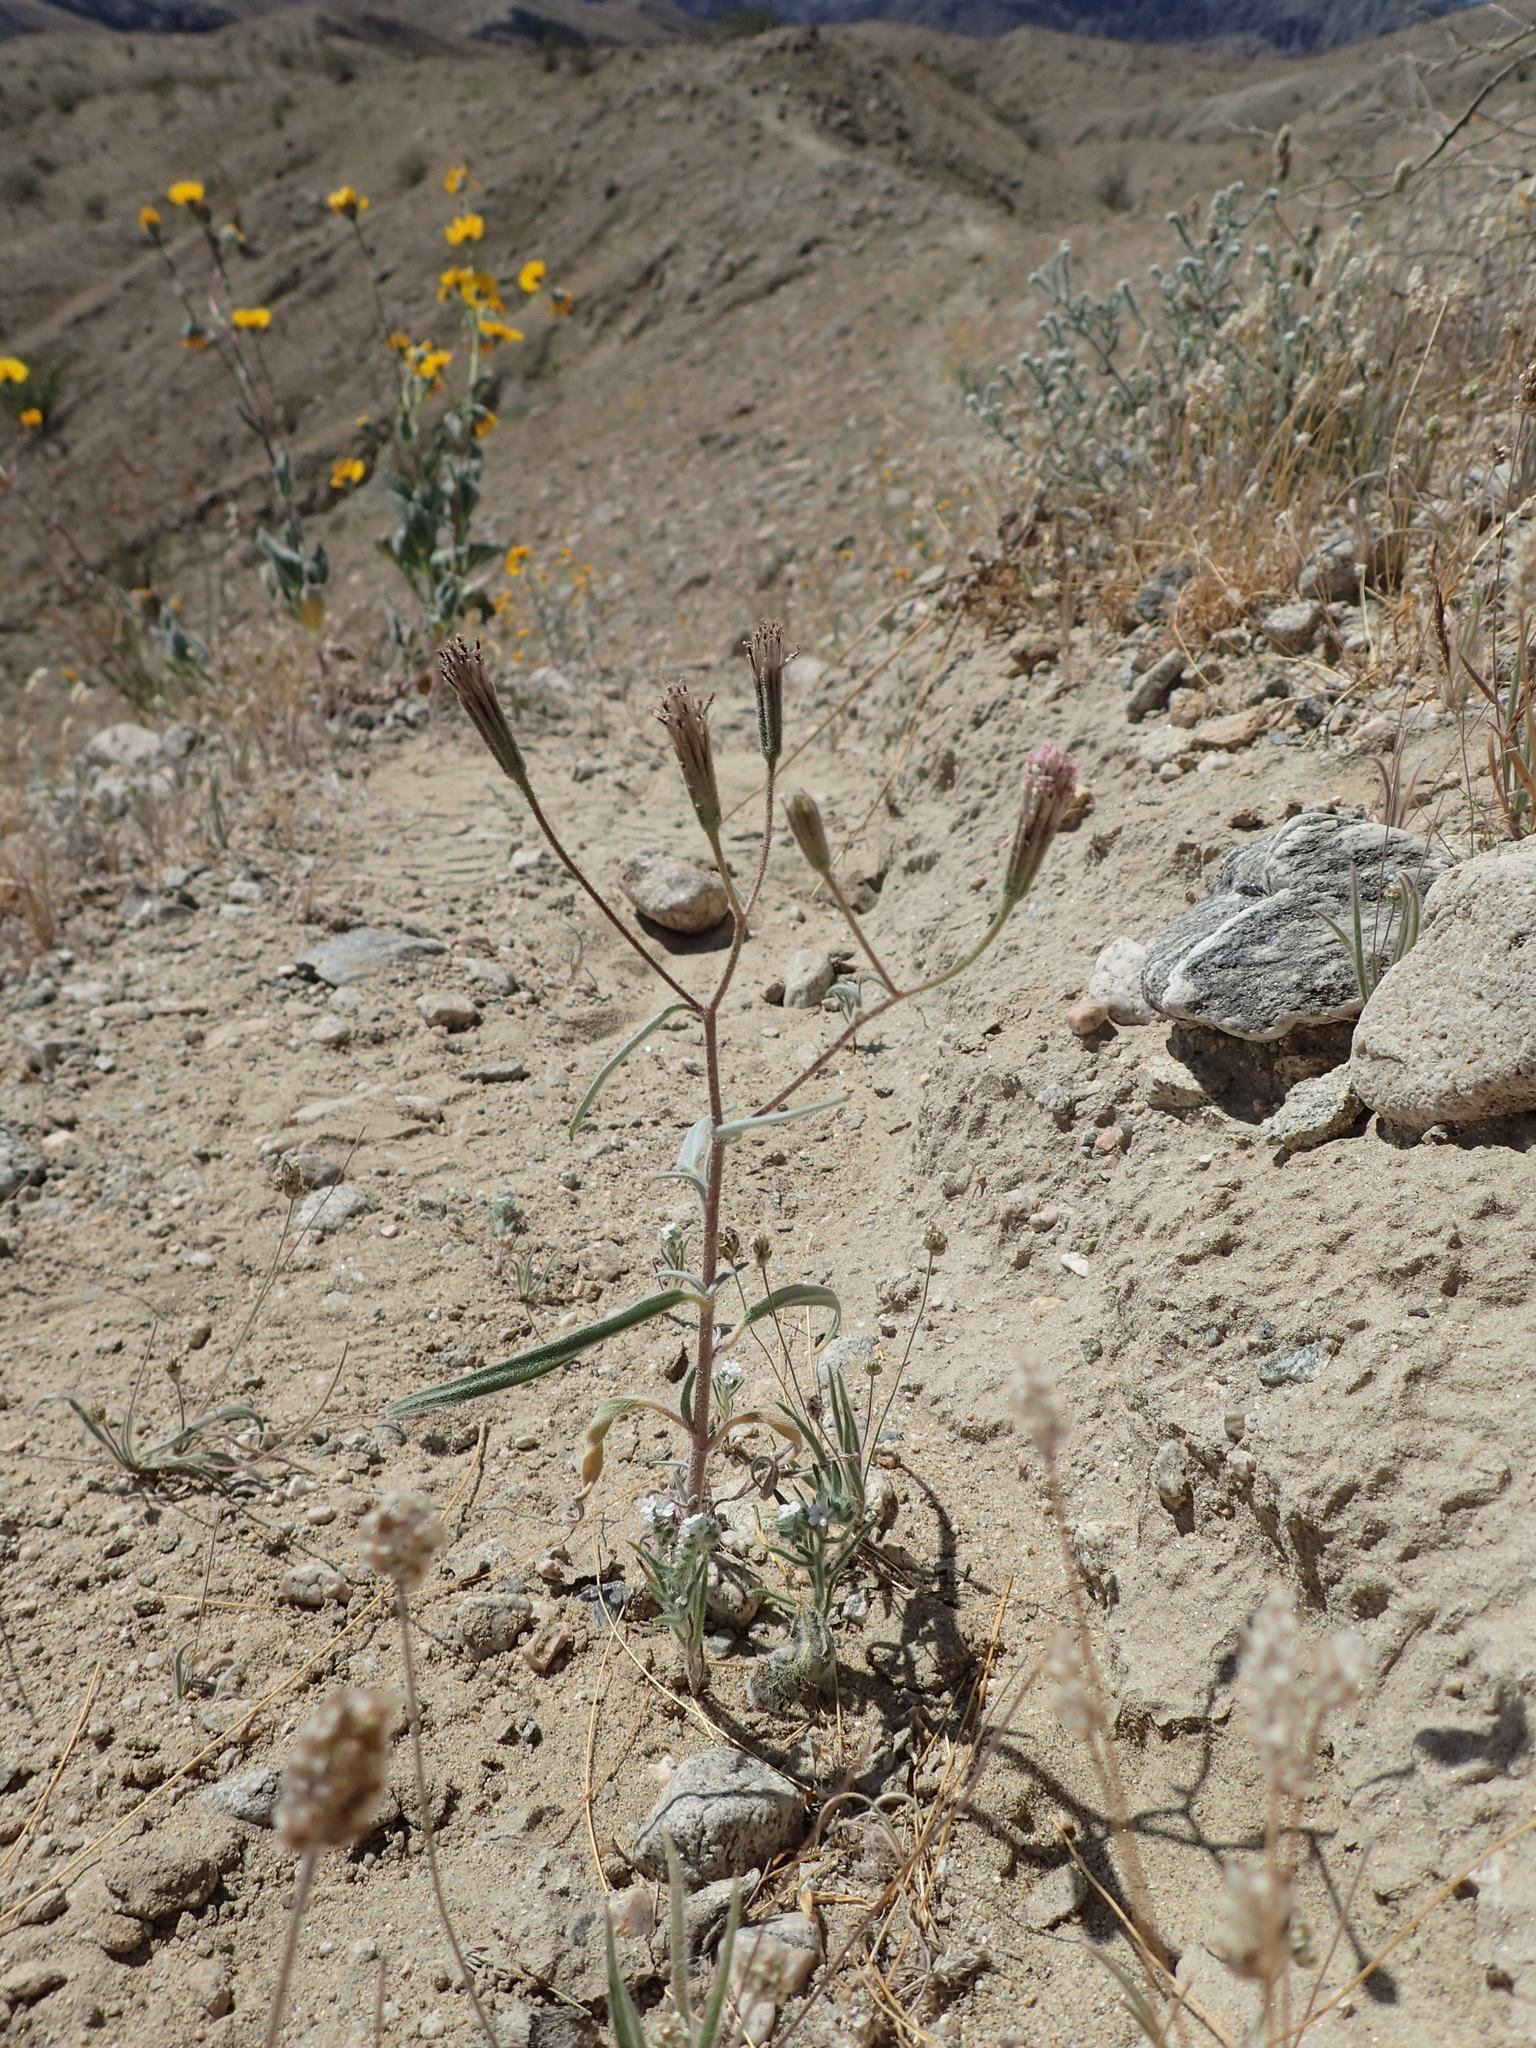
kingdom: Plantae
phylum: Tracheophyta
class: Magnoliopsida
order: Asterales
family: Asteraceae
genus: Palafoxia
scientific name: Palafoxia arida
